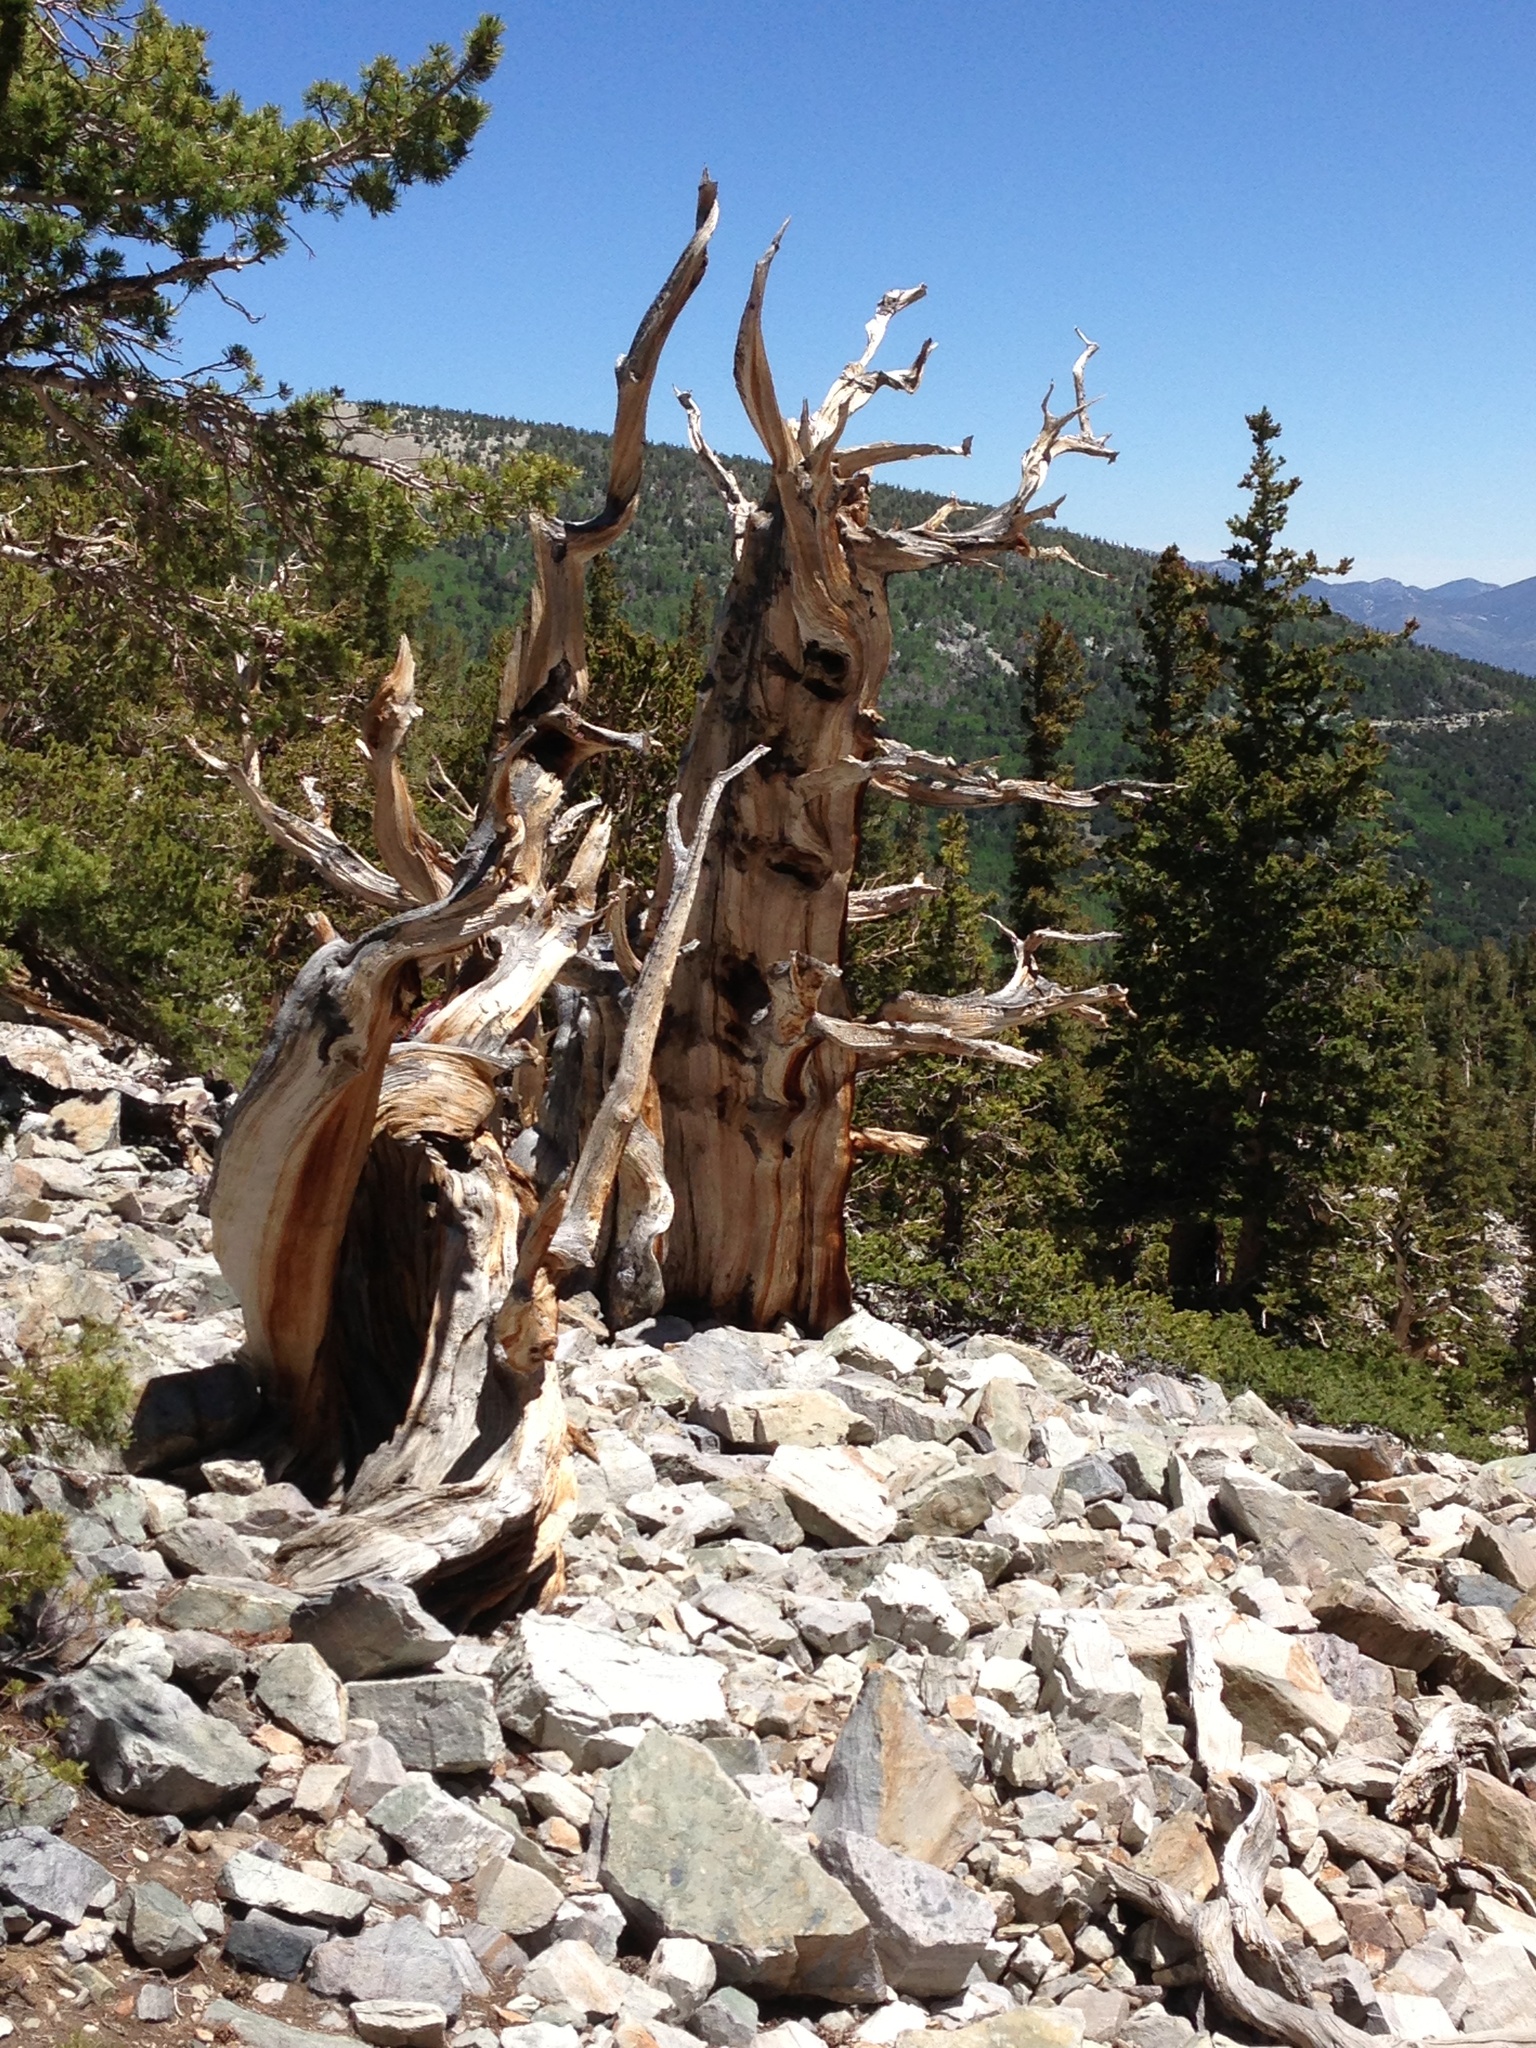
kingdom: Plantae
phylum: Tracheophyta
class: Pinopsida
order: Pinales
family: Pinaceae
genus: Pinus
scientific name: Pinus longaeva
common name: Intermountain bristlecone pine
